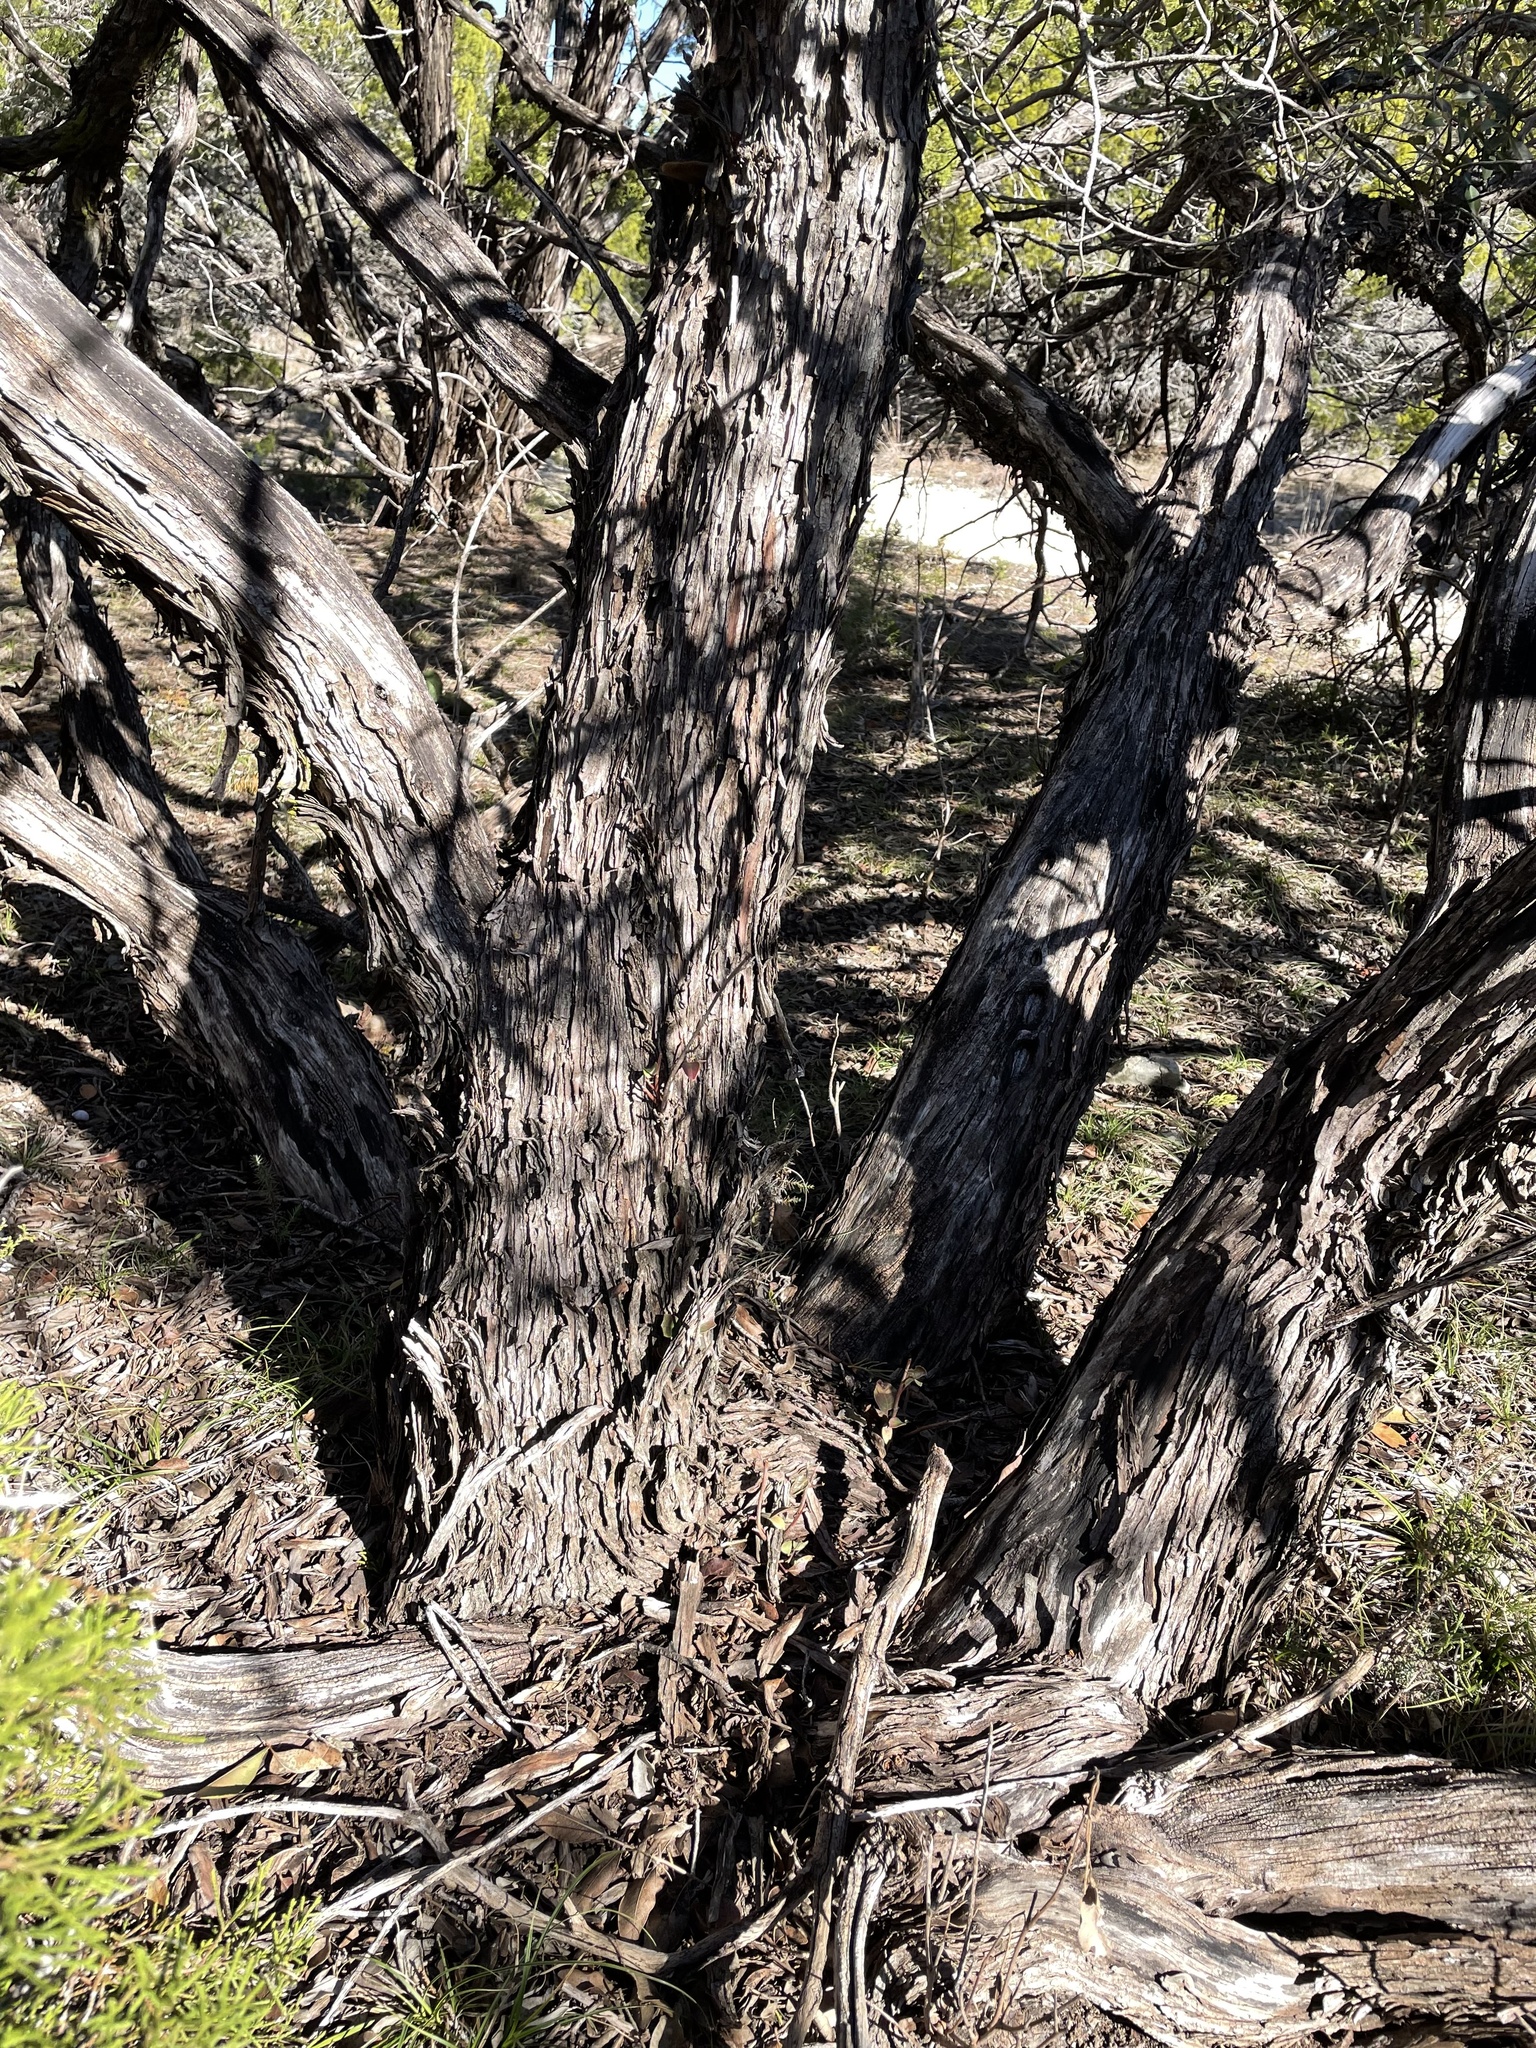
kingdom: Plantae
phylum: Tracheophyta
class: Magnoliopsida
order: Sapindales
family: Anacardiaceae
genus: Rhus
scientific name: Rhus virens
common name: Evergreen sumac
